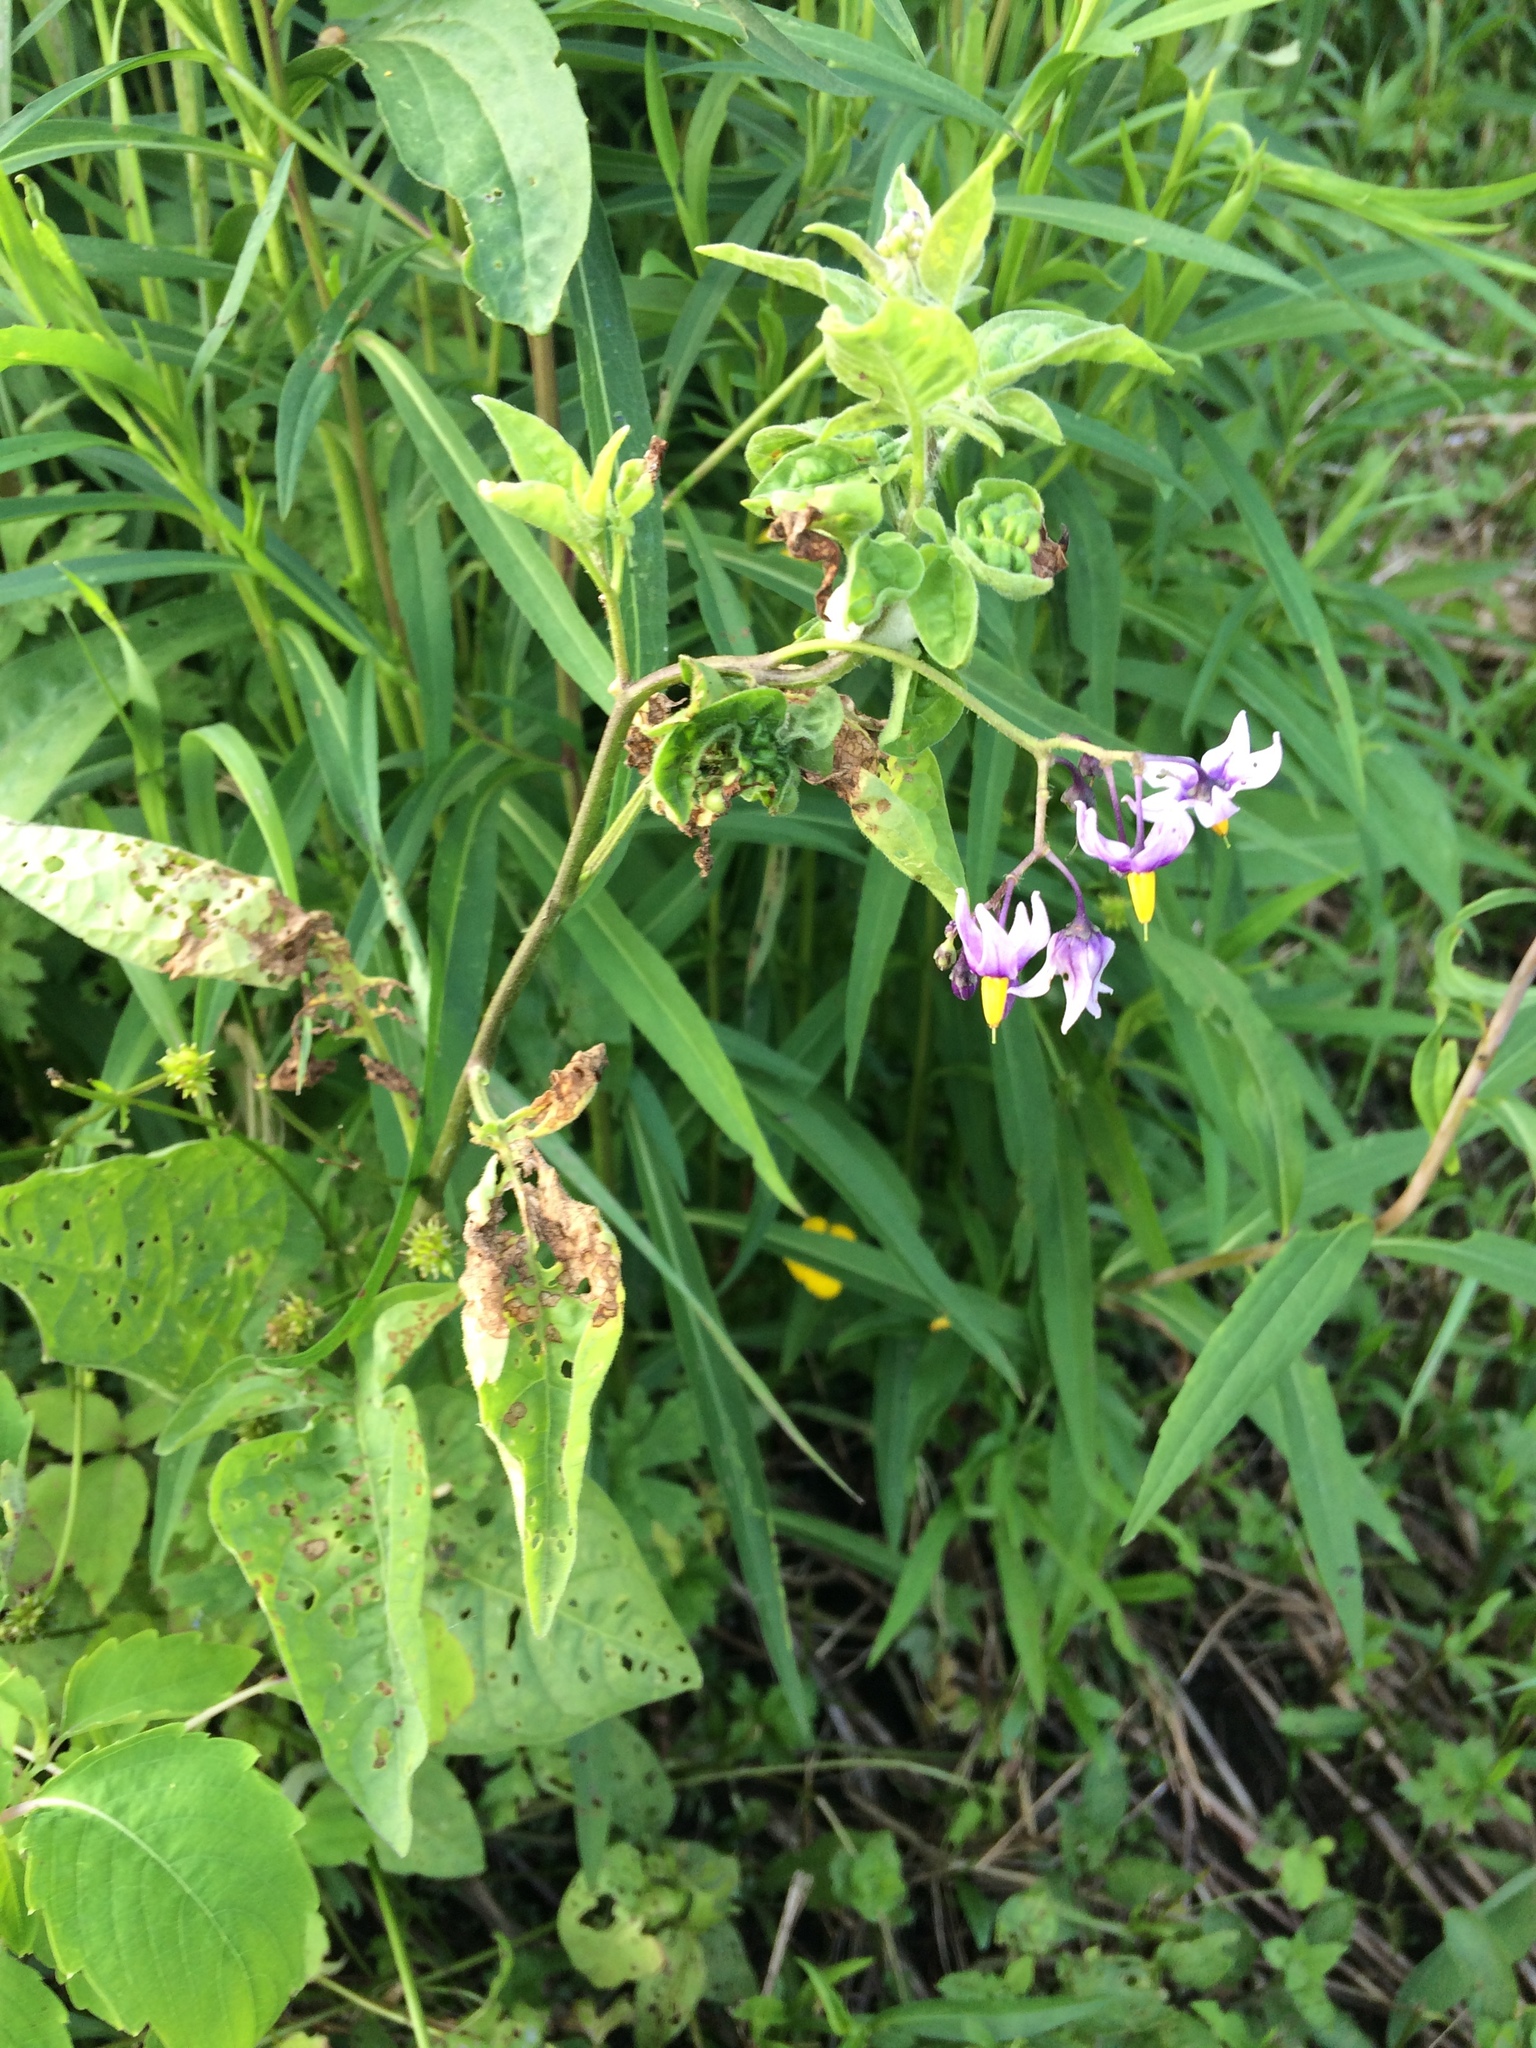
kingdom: Plantae
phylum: Tracheophyta
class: Magnoliopsida
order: Solanales
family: Solanaceae
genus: Solanum
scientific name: Solanum dulcamara
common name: Climbing nightshade
